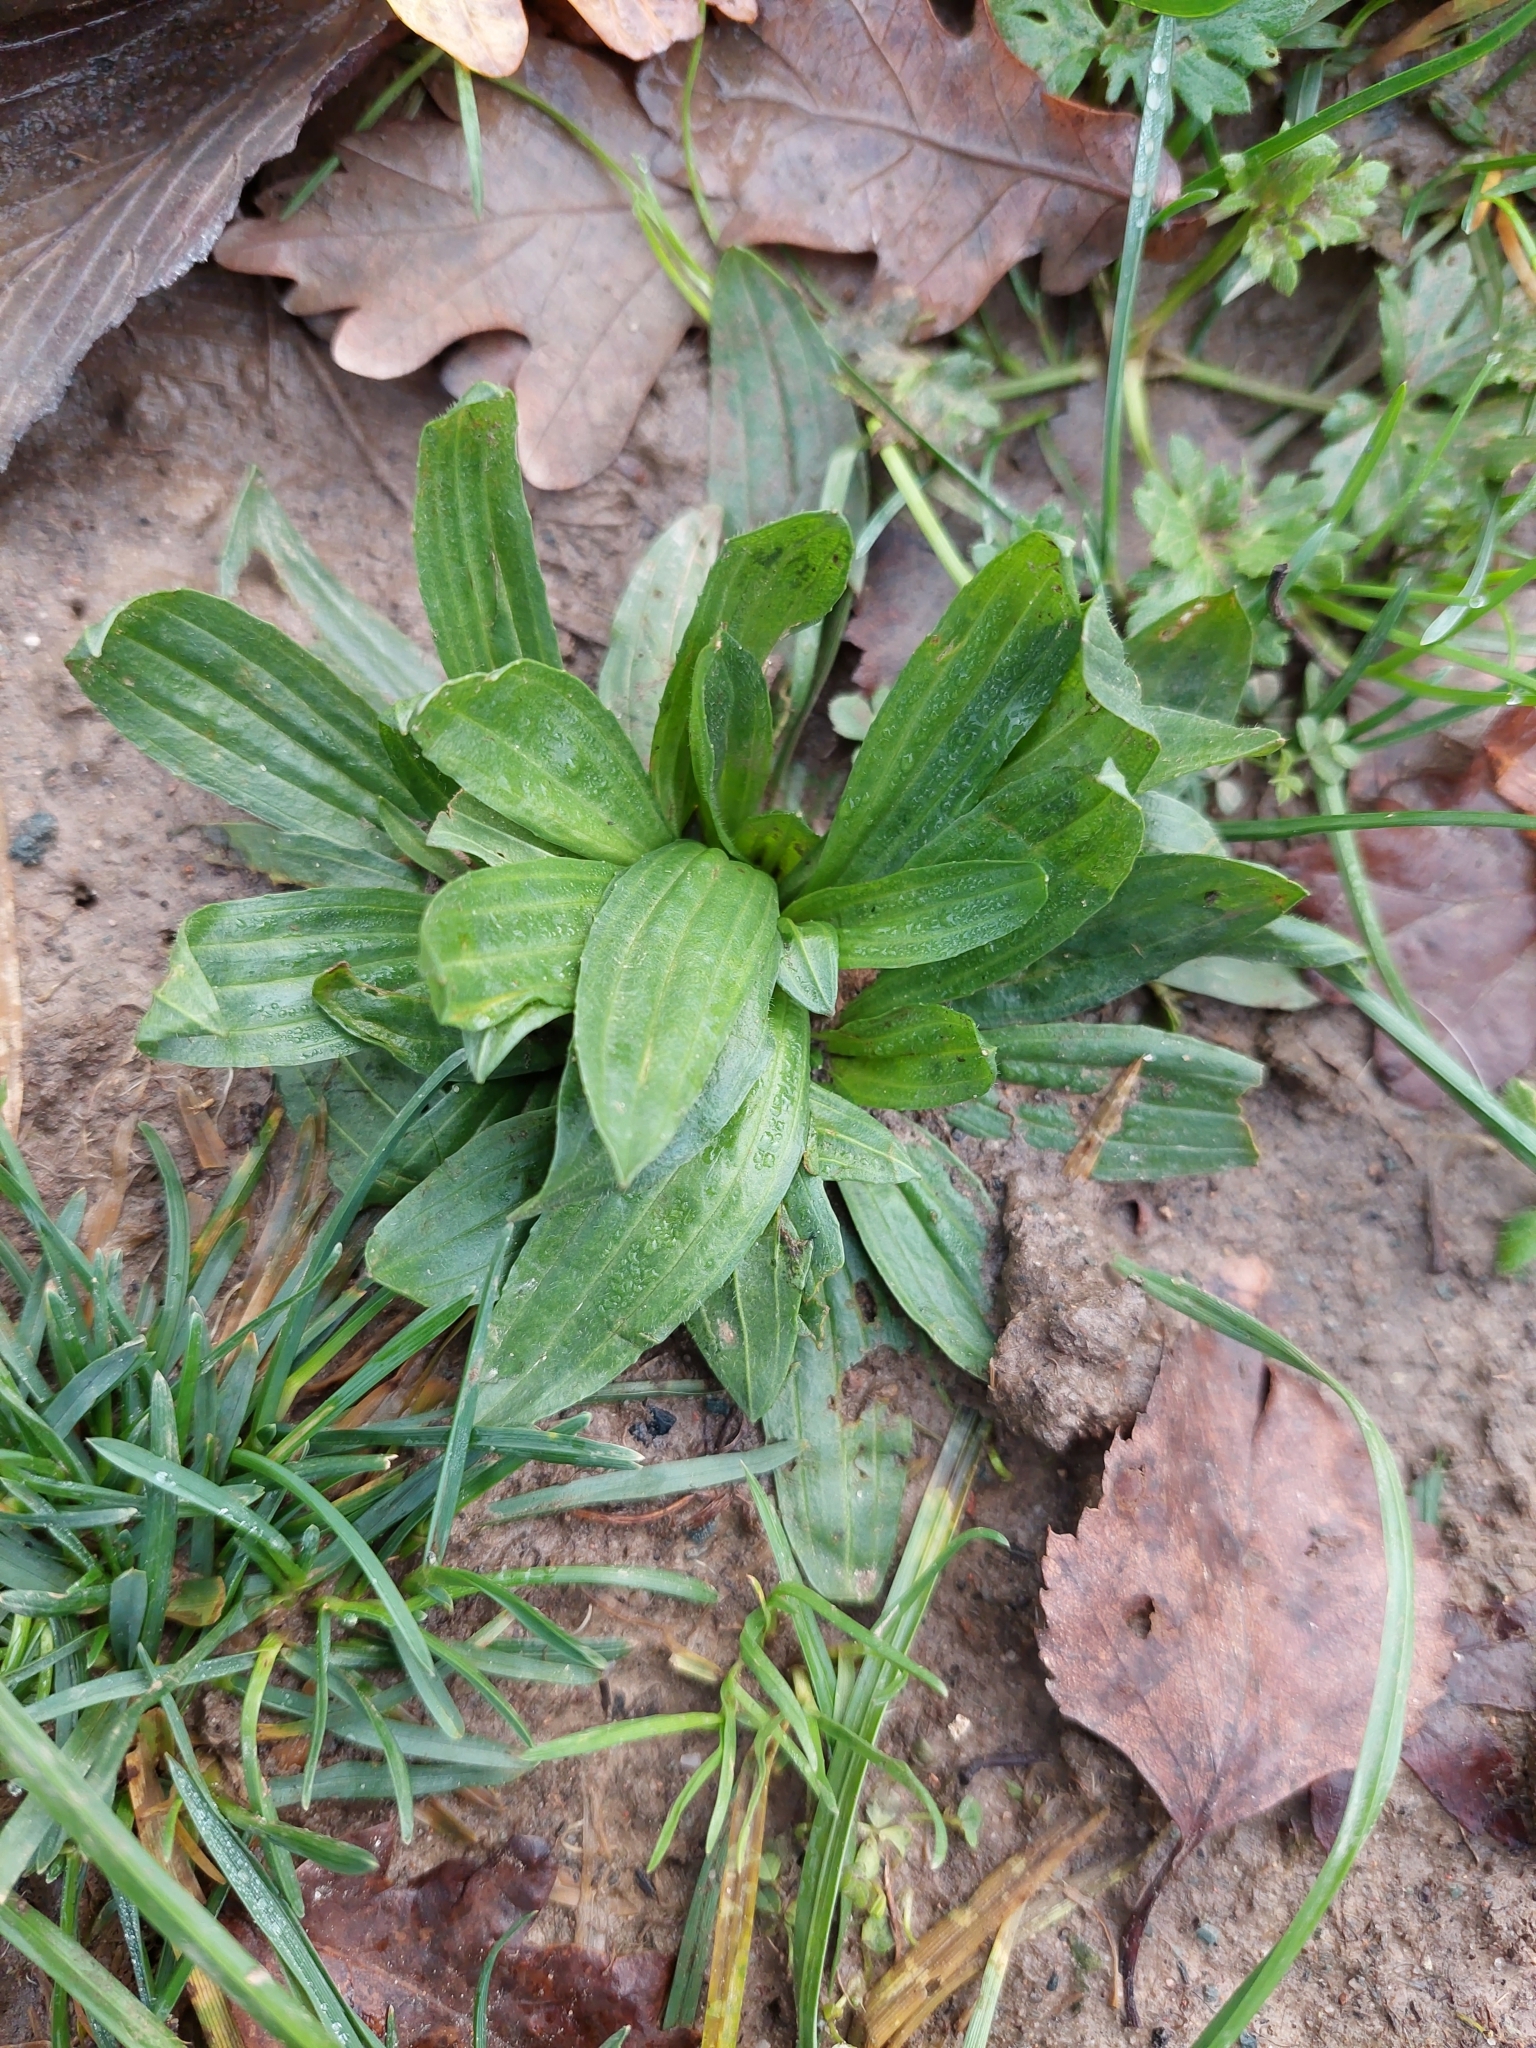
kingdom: Plantae
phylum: Tracheophyta
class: Magnoliopsida
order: Lamiales
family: Plantaginaceae
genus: Plantago
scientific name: Plantago lanceolata
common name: Ribwort plantain
